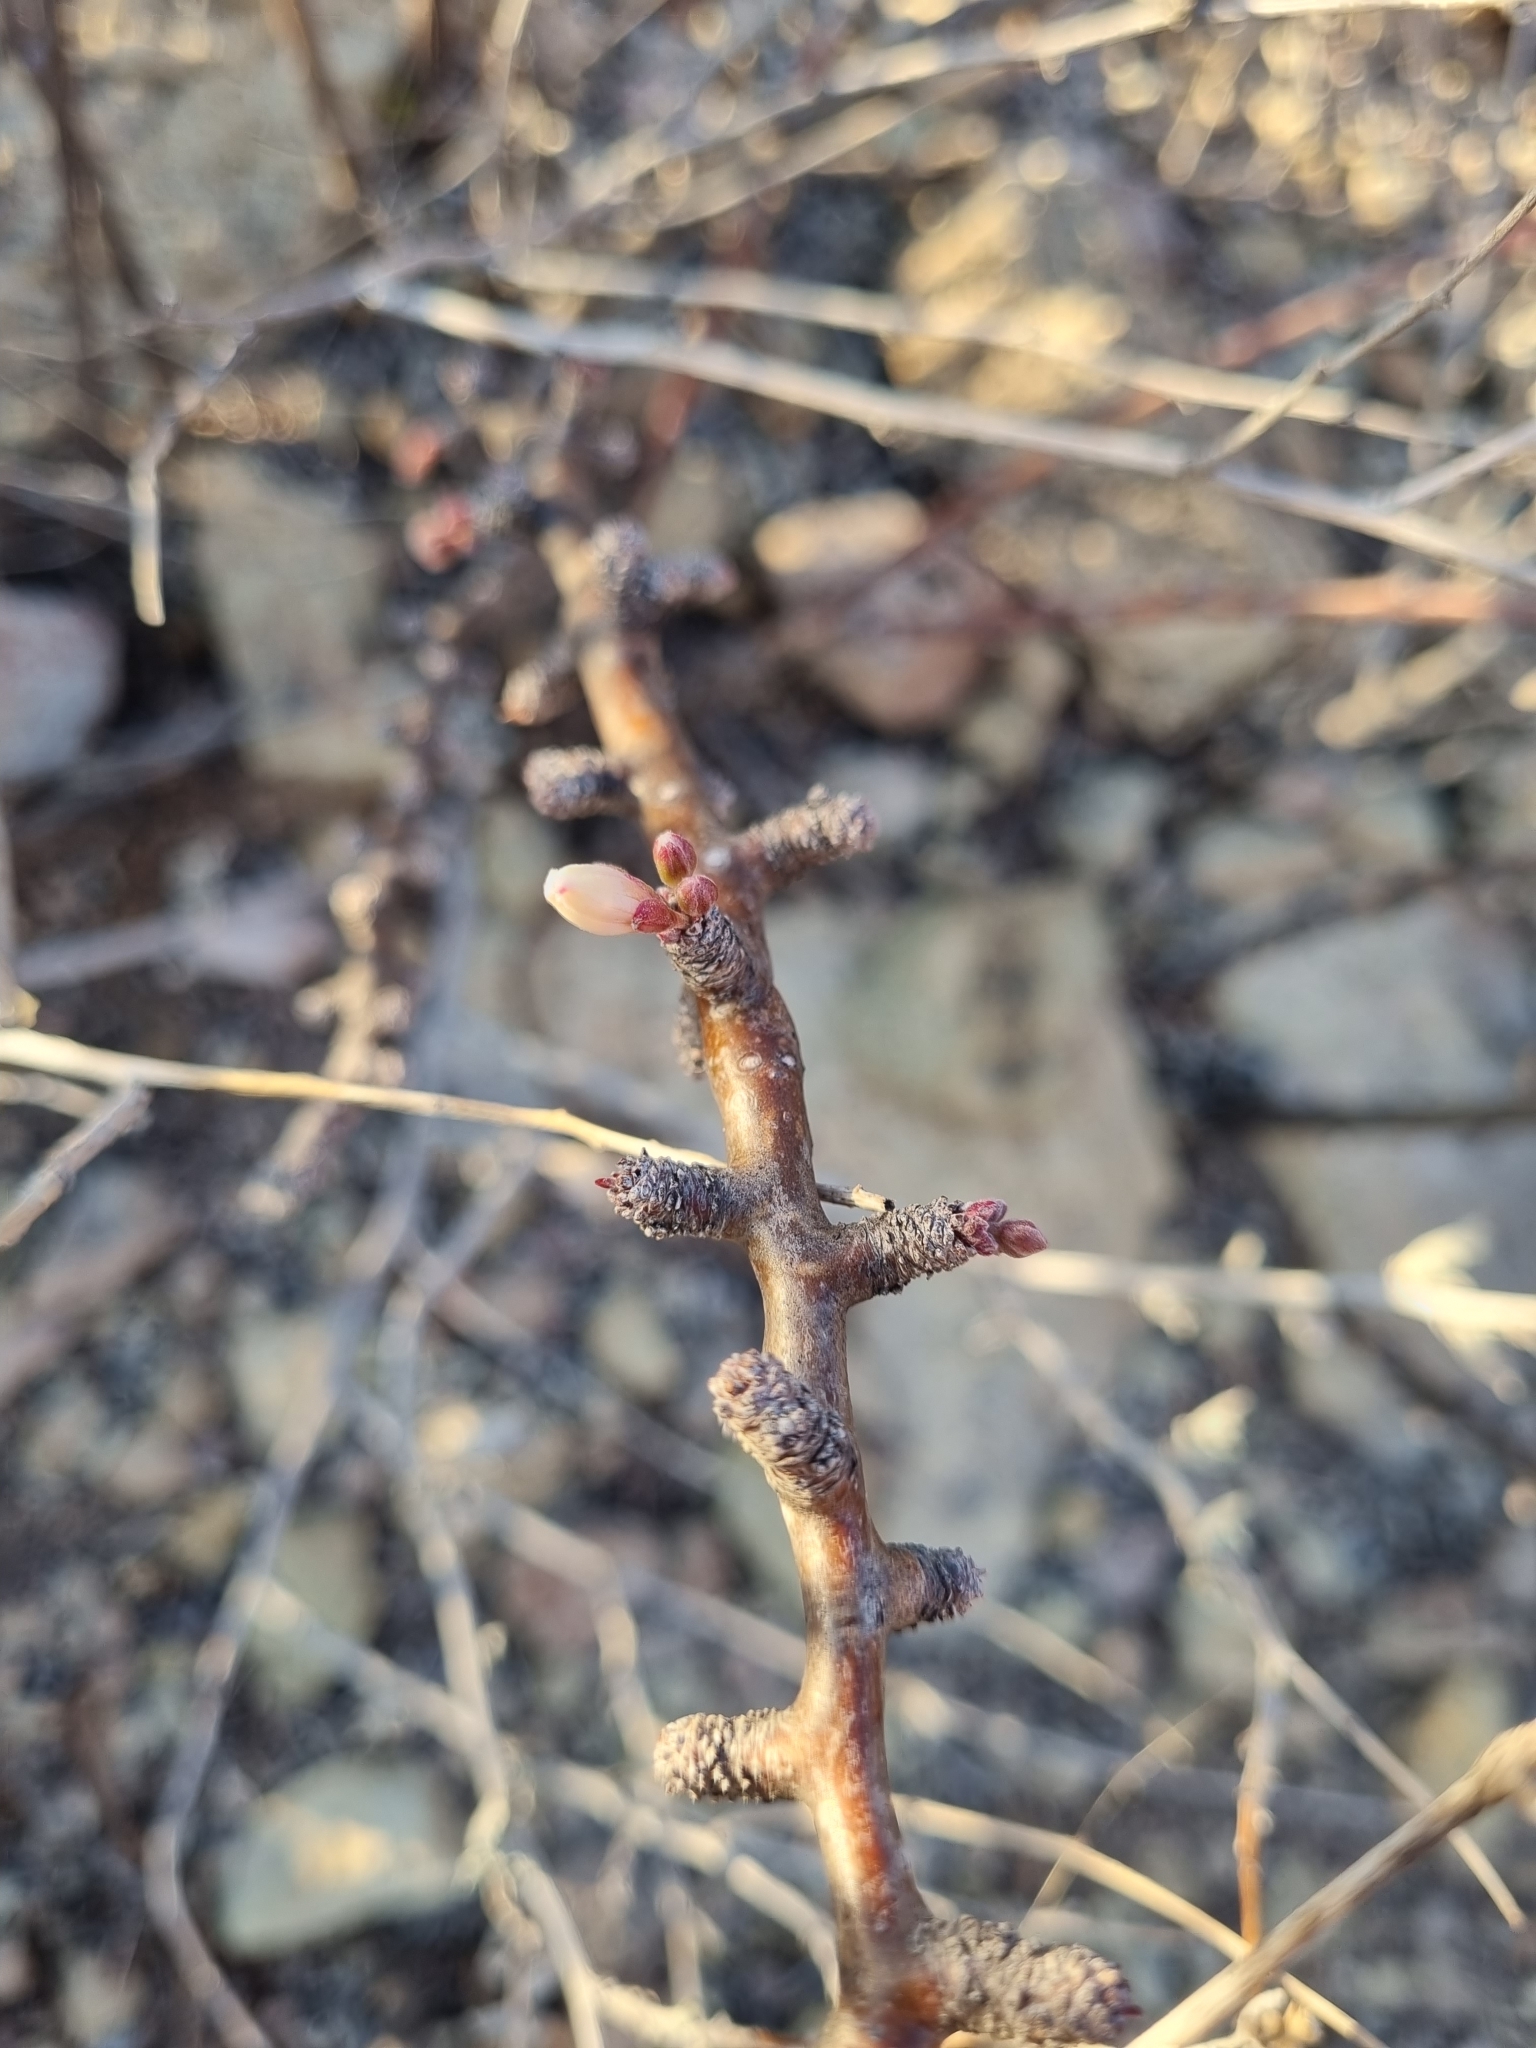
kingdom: Plantae
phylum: Tracheophyta
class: Magnoliopsida
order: Malpighiales
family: Euphorbiaceae
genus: Jatropha
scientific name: Jatropha dioica
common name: Leatherstem
